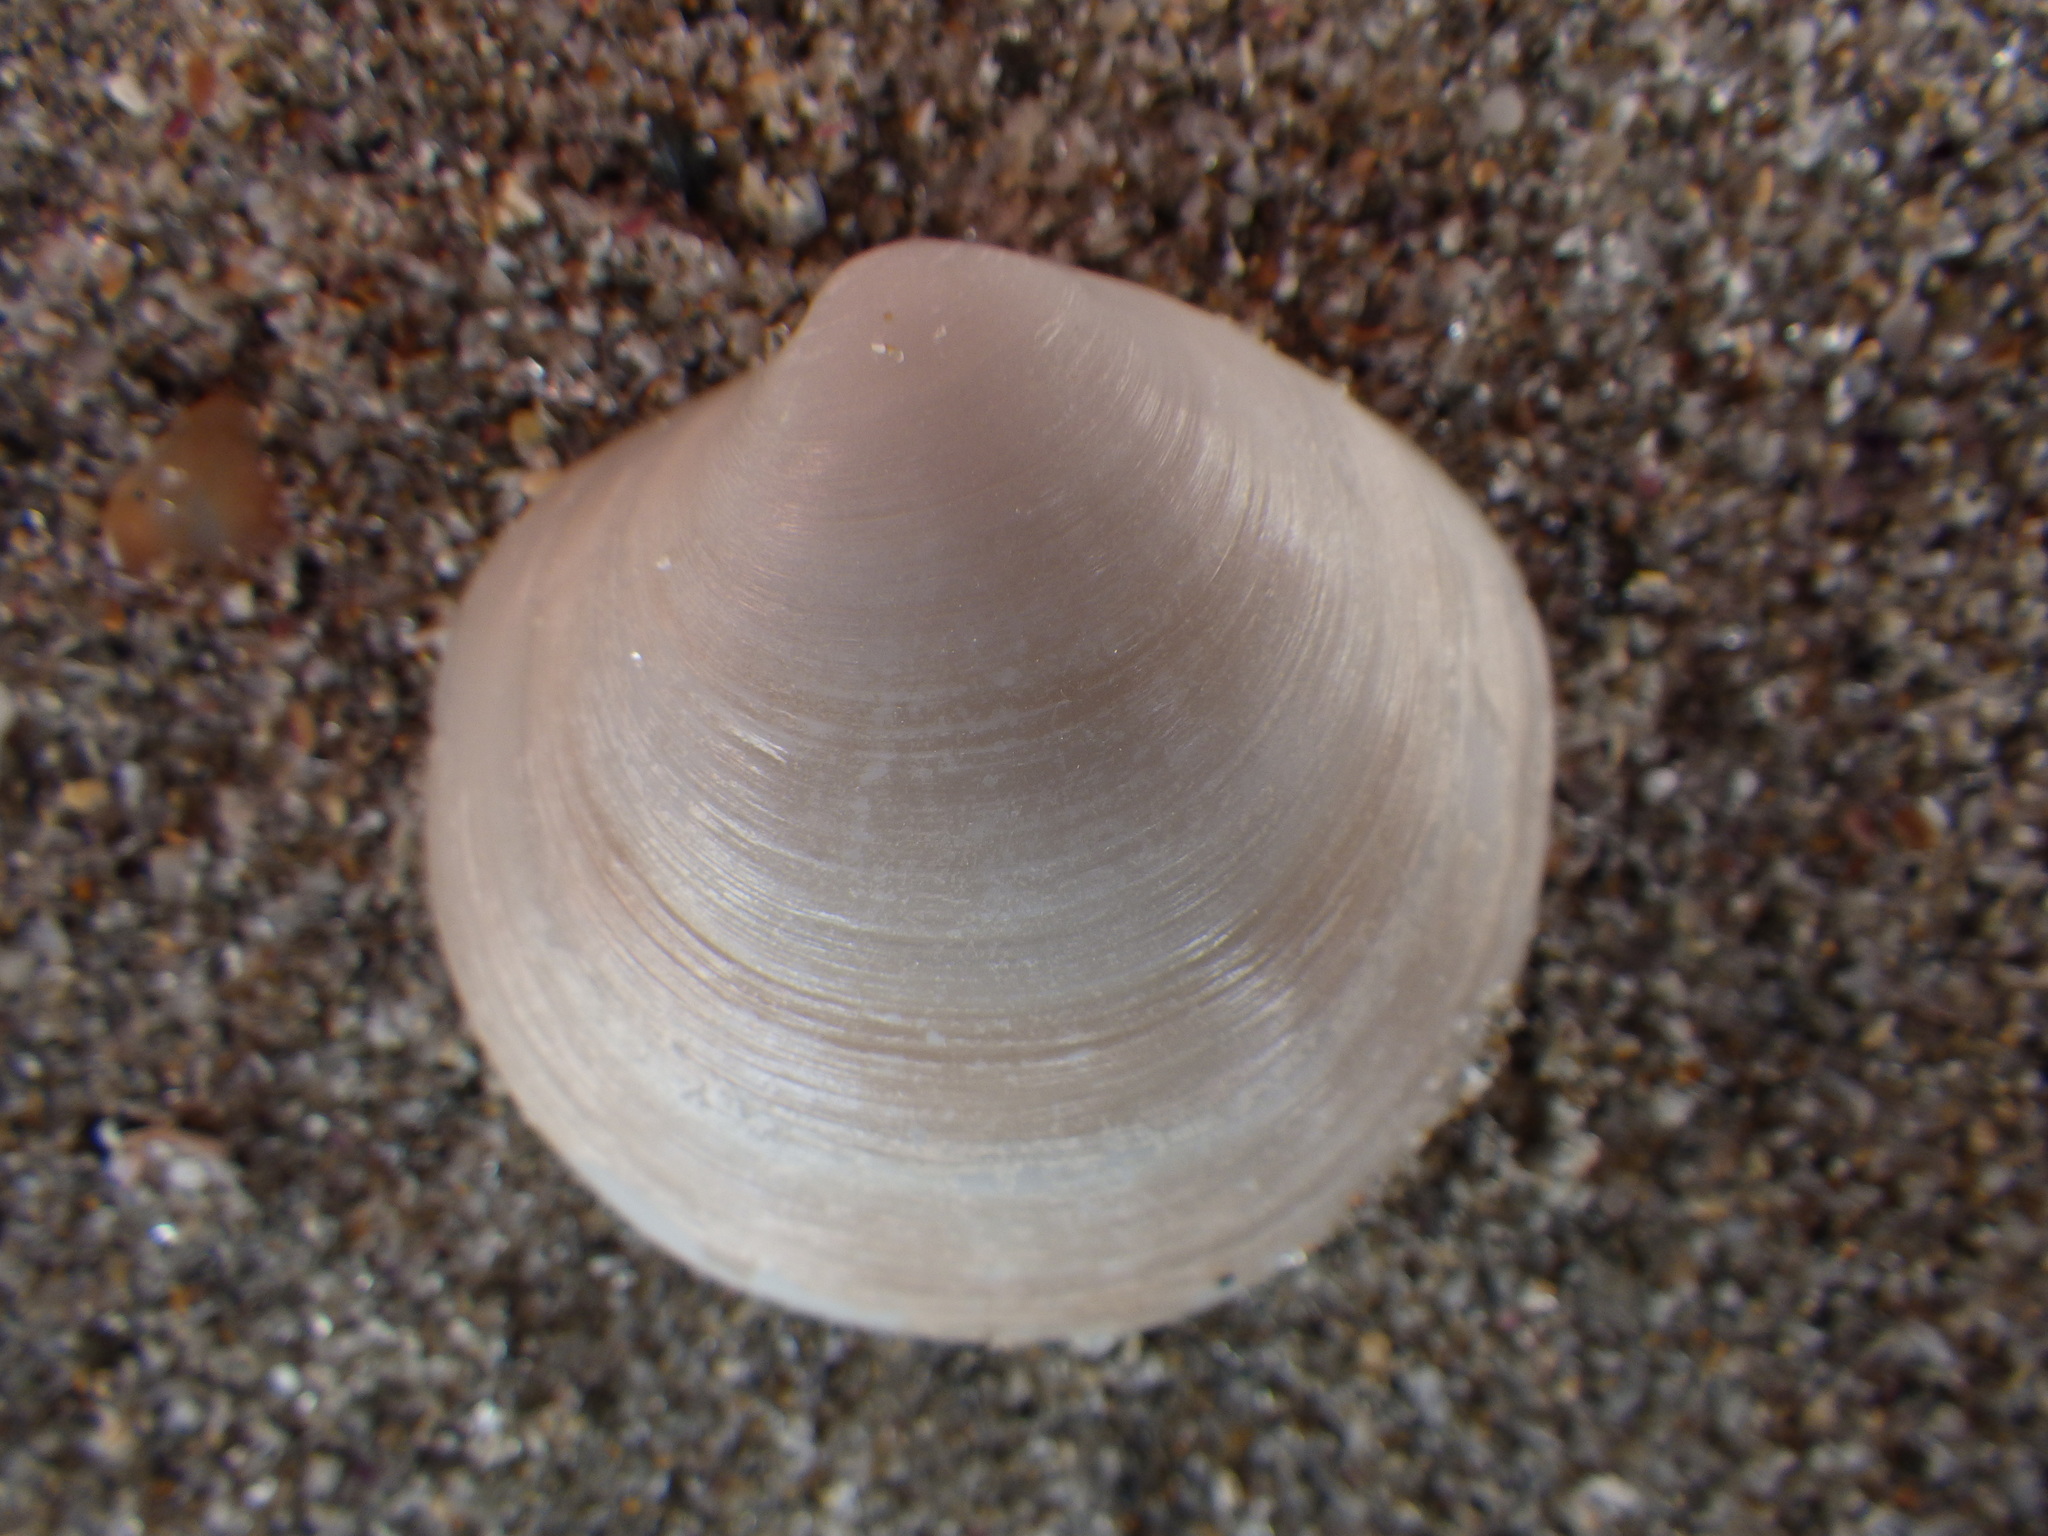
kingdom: Animalia
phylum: Mollusca
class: Bivalvia
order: Venerida
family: Ungulinidae
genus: Zemysina
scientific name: Zemysina globus
